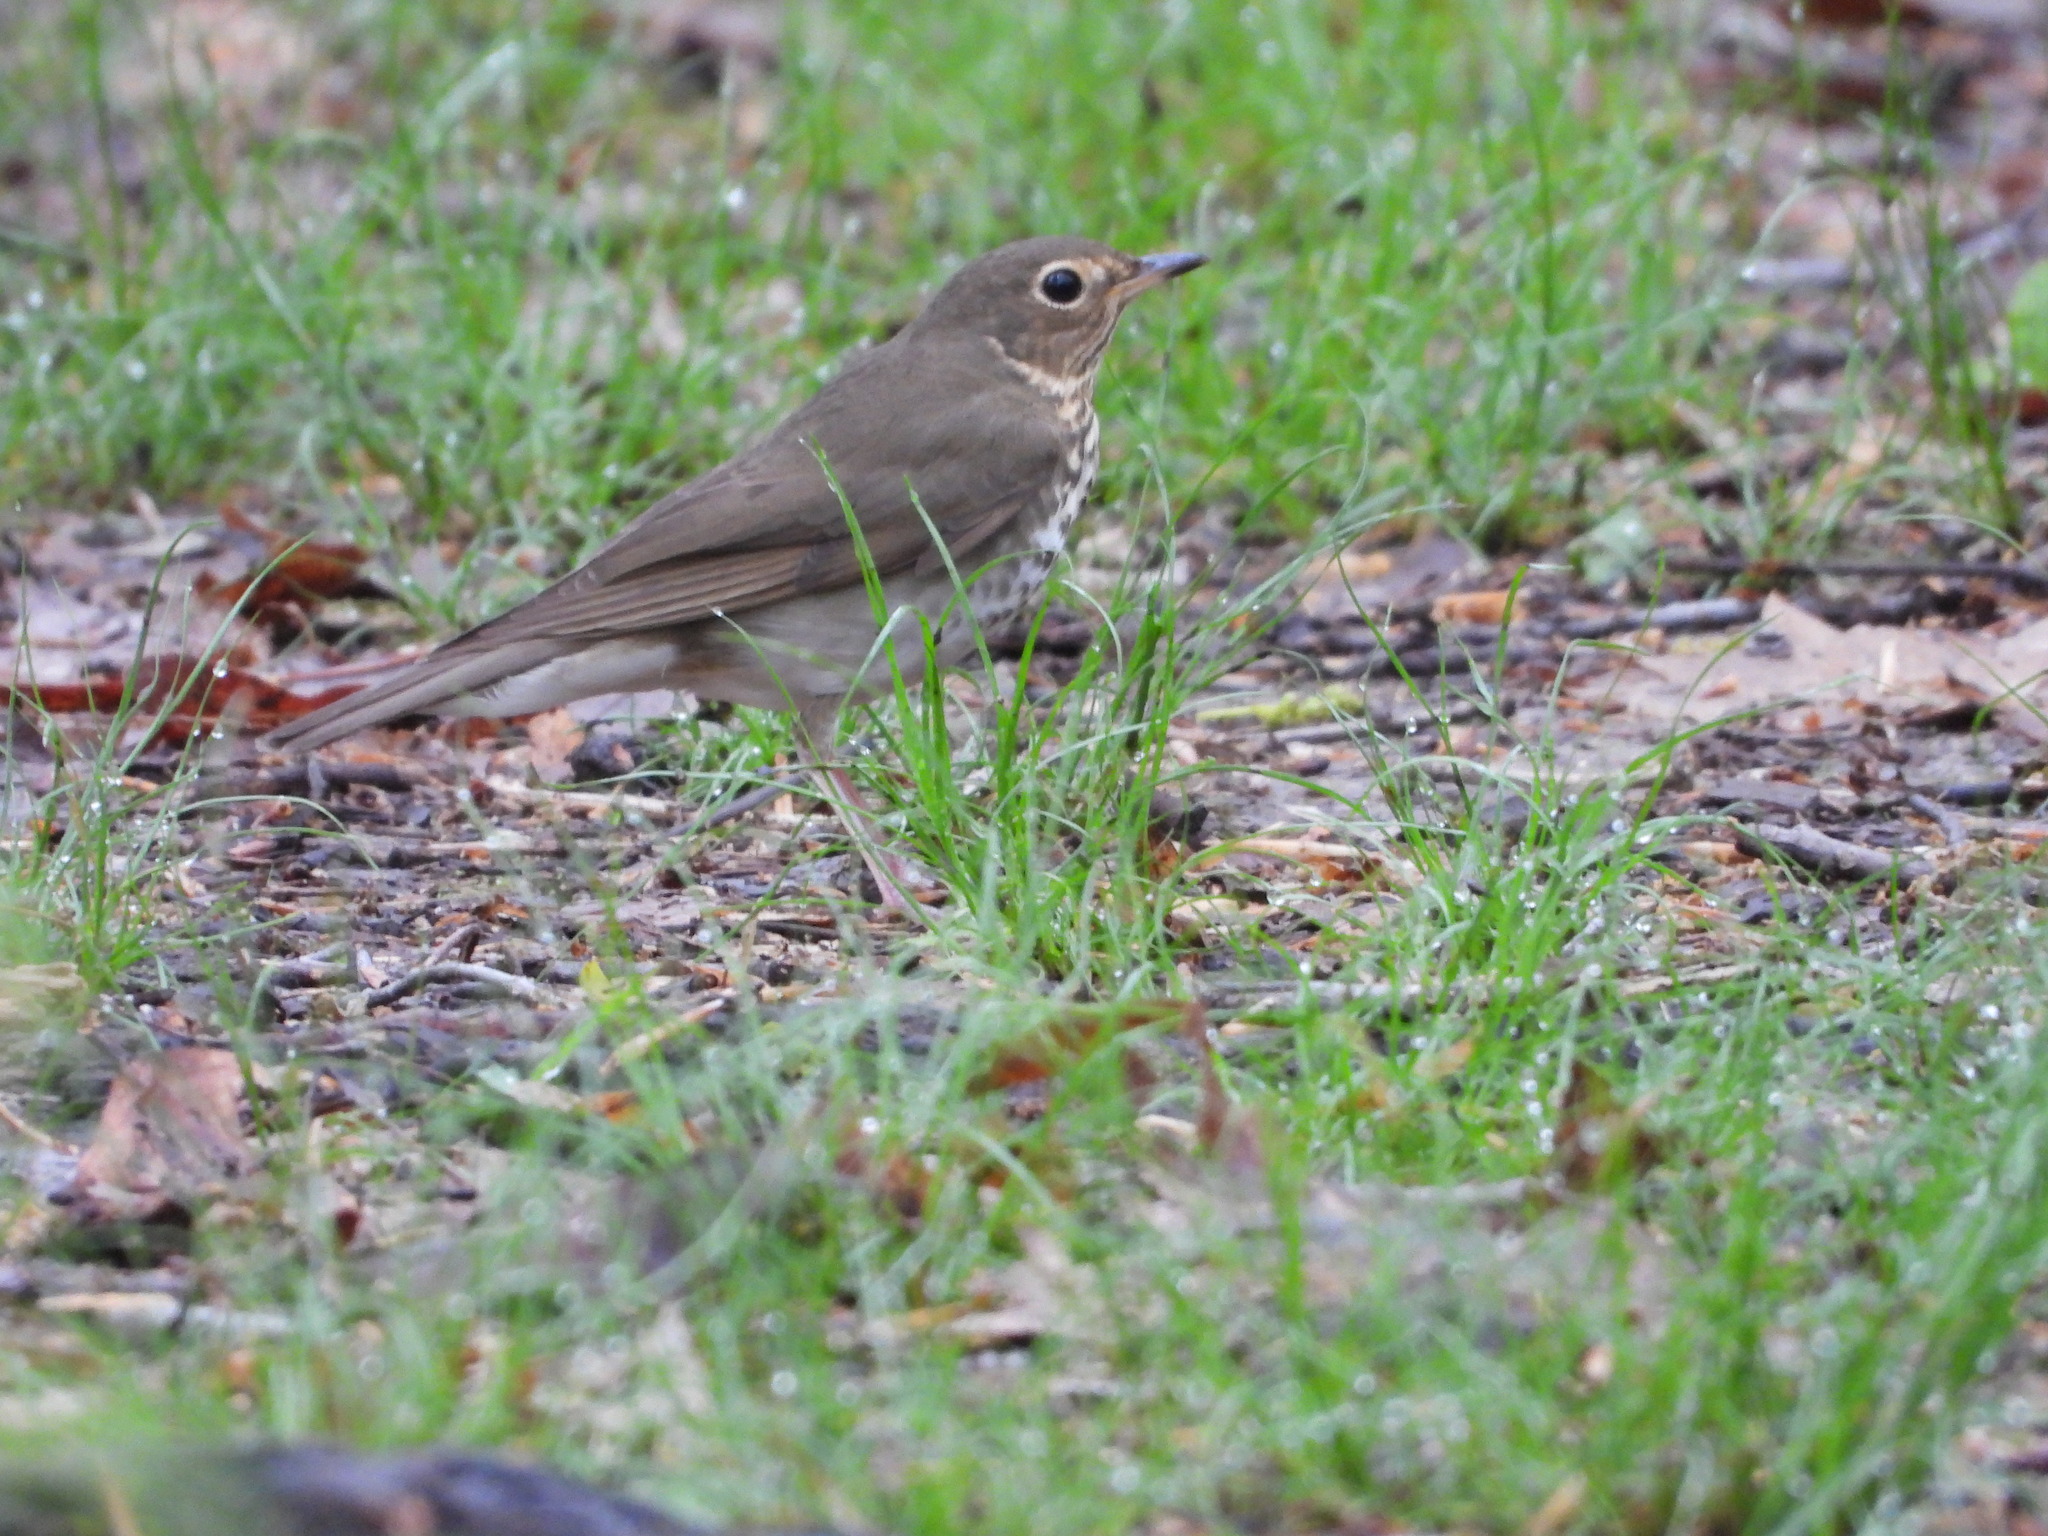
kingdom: Animalia
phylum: Chordata
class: Aves
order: Passeriformes
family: Turdidae
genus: Catharus
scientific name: Catharus ustulatus
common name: Swainson's thrush
